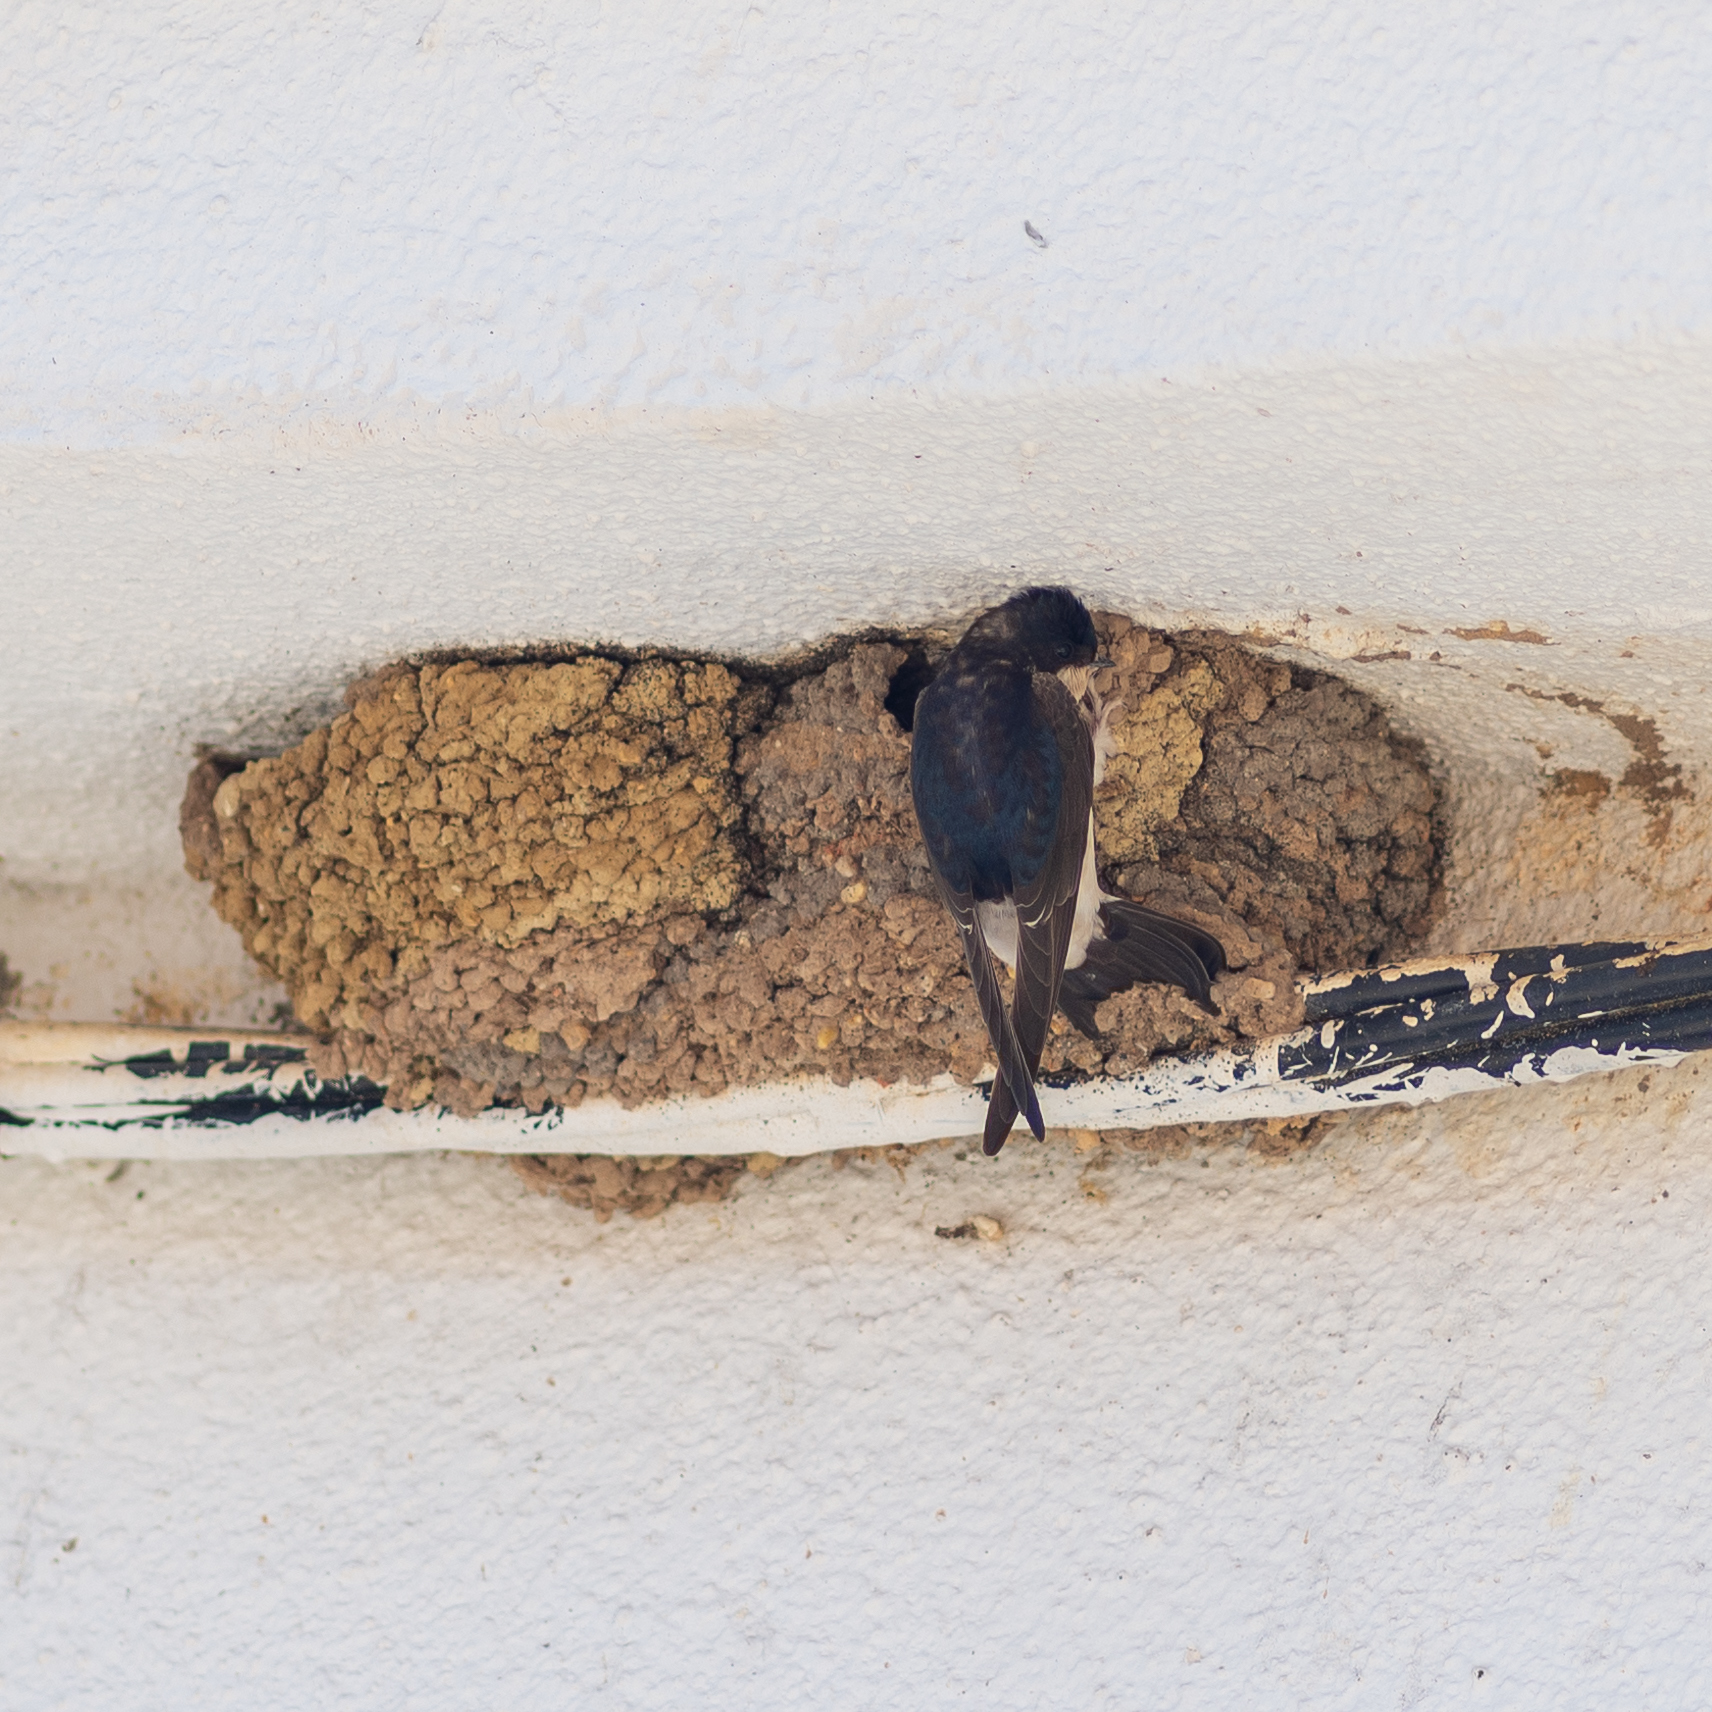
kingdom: Animalia
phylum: Chordata
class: Aves
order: Passeriformes
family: Hirundinidae
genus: Delichon
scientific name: Delichon urbicum
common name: Common house martin
